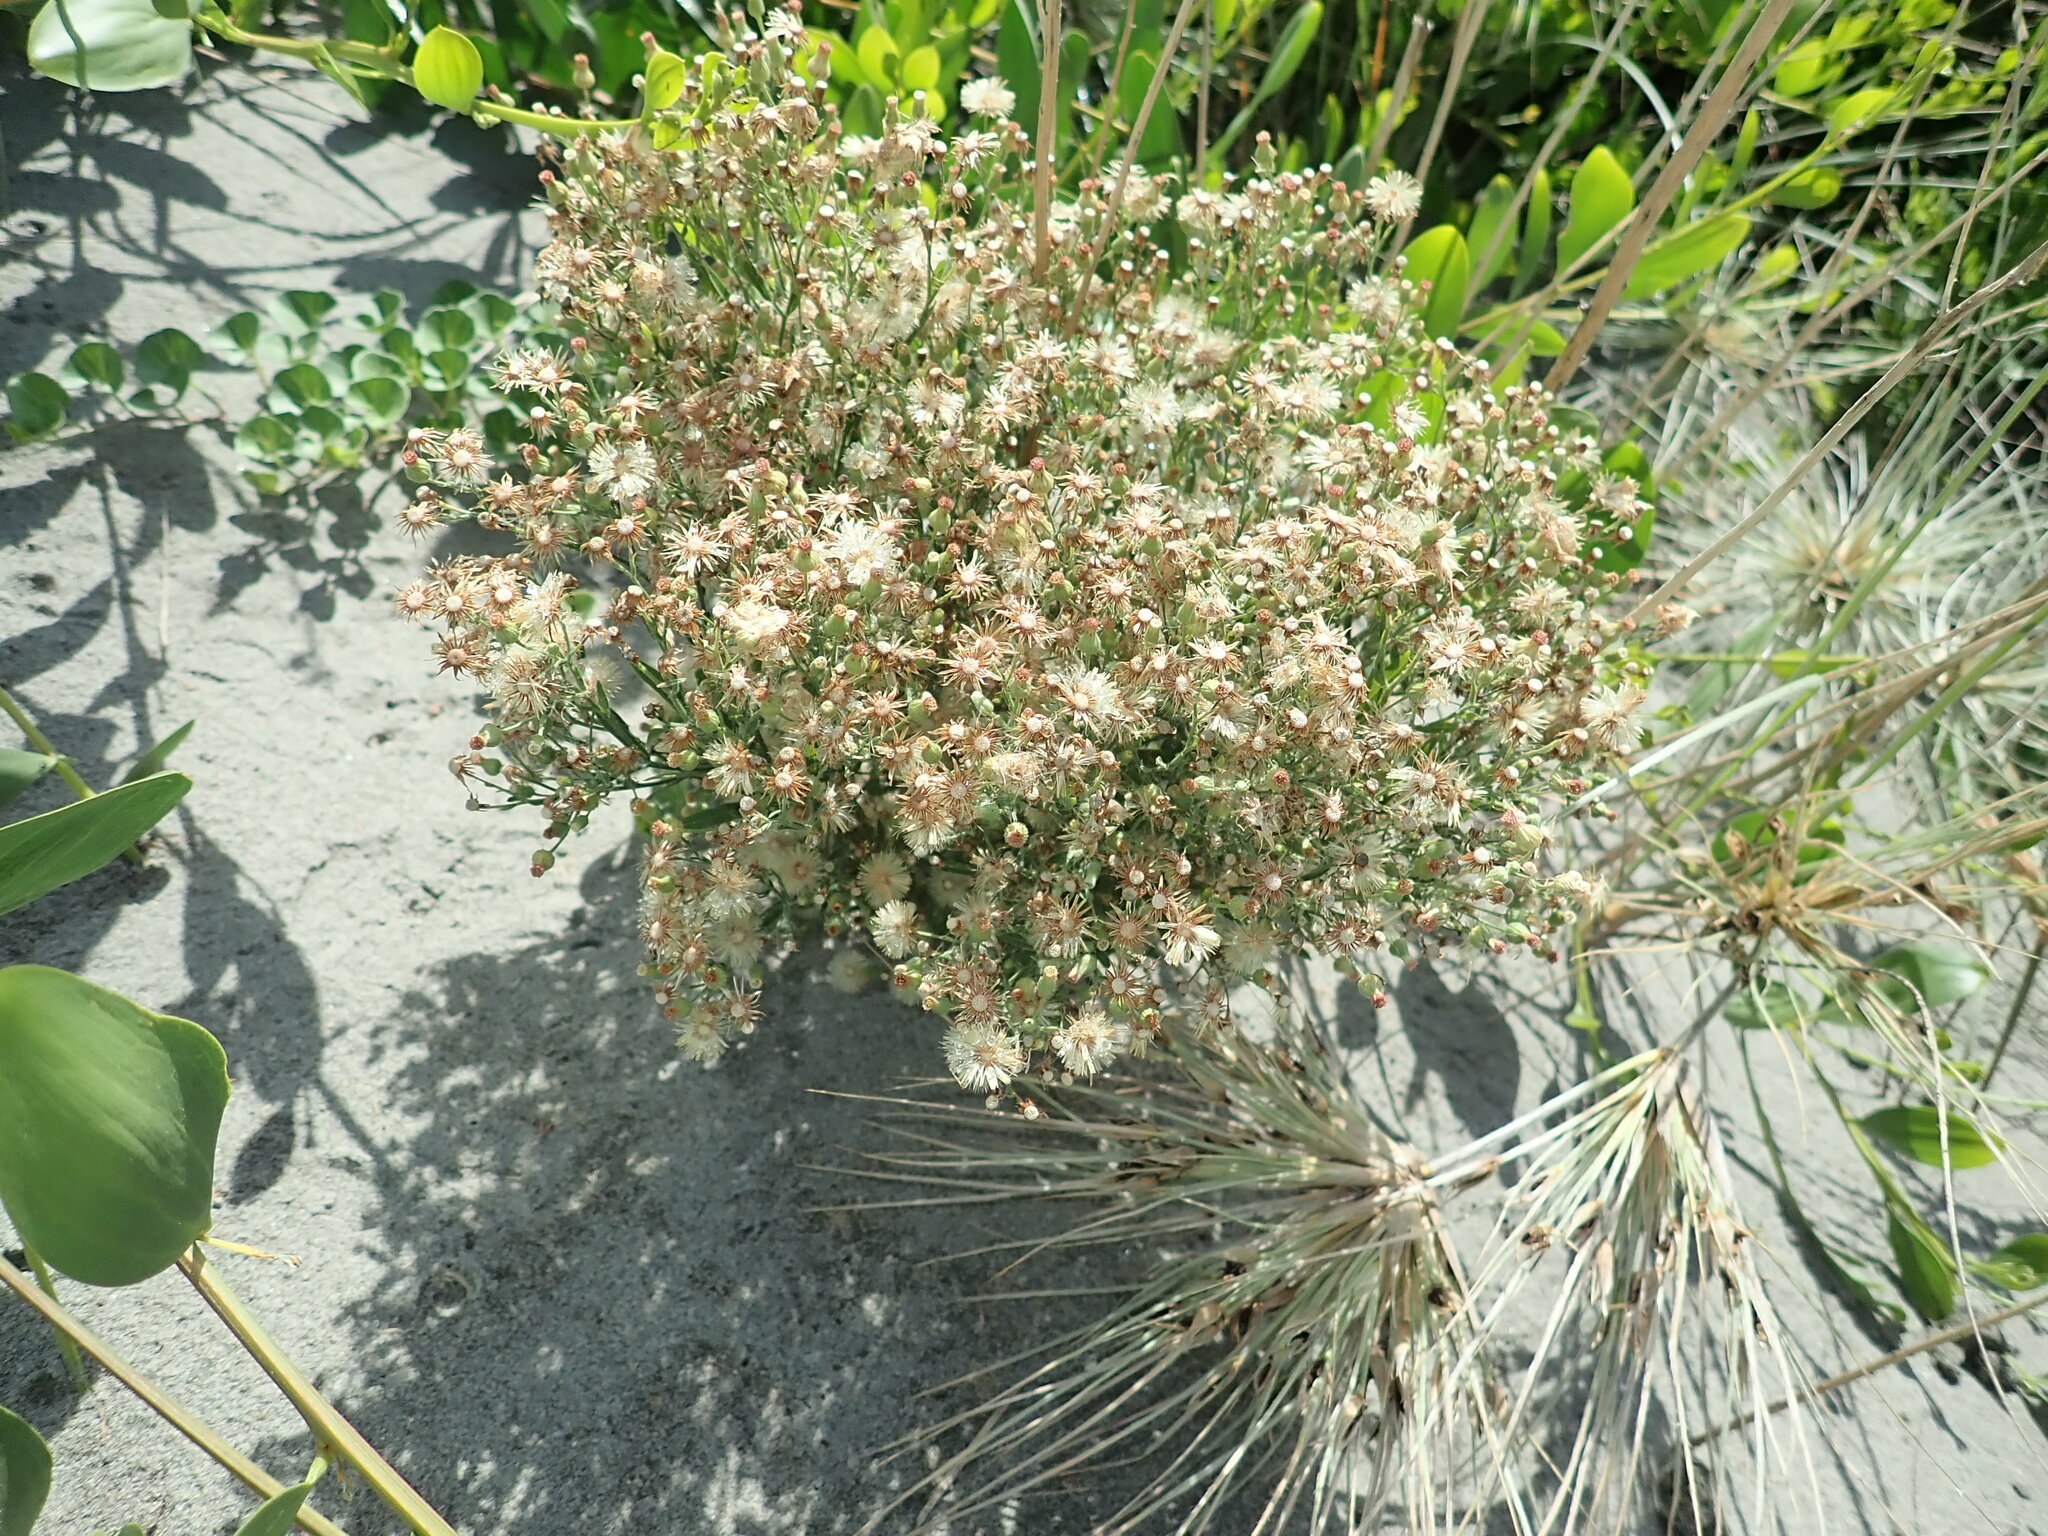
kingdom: Plantae
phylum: Tracheophyta
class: Magnoliopsida
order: Asterales
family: Asteraceae
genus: Erigeron
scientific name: Erigeron sumatrensis
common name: Daisy
